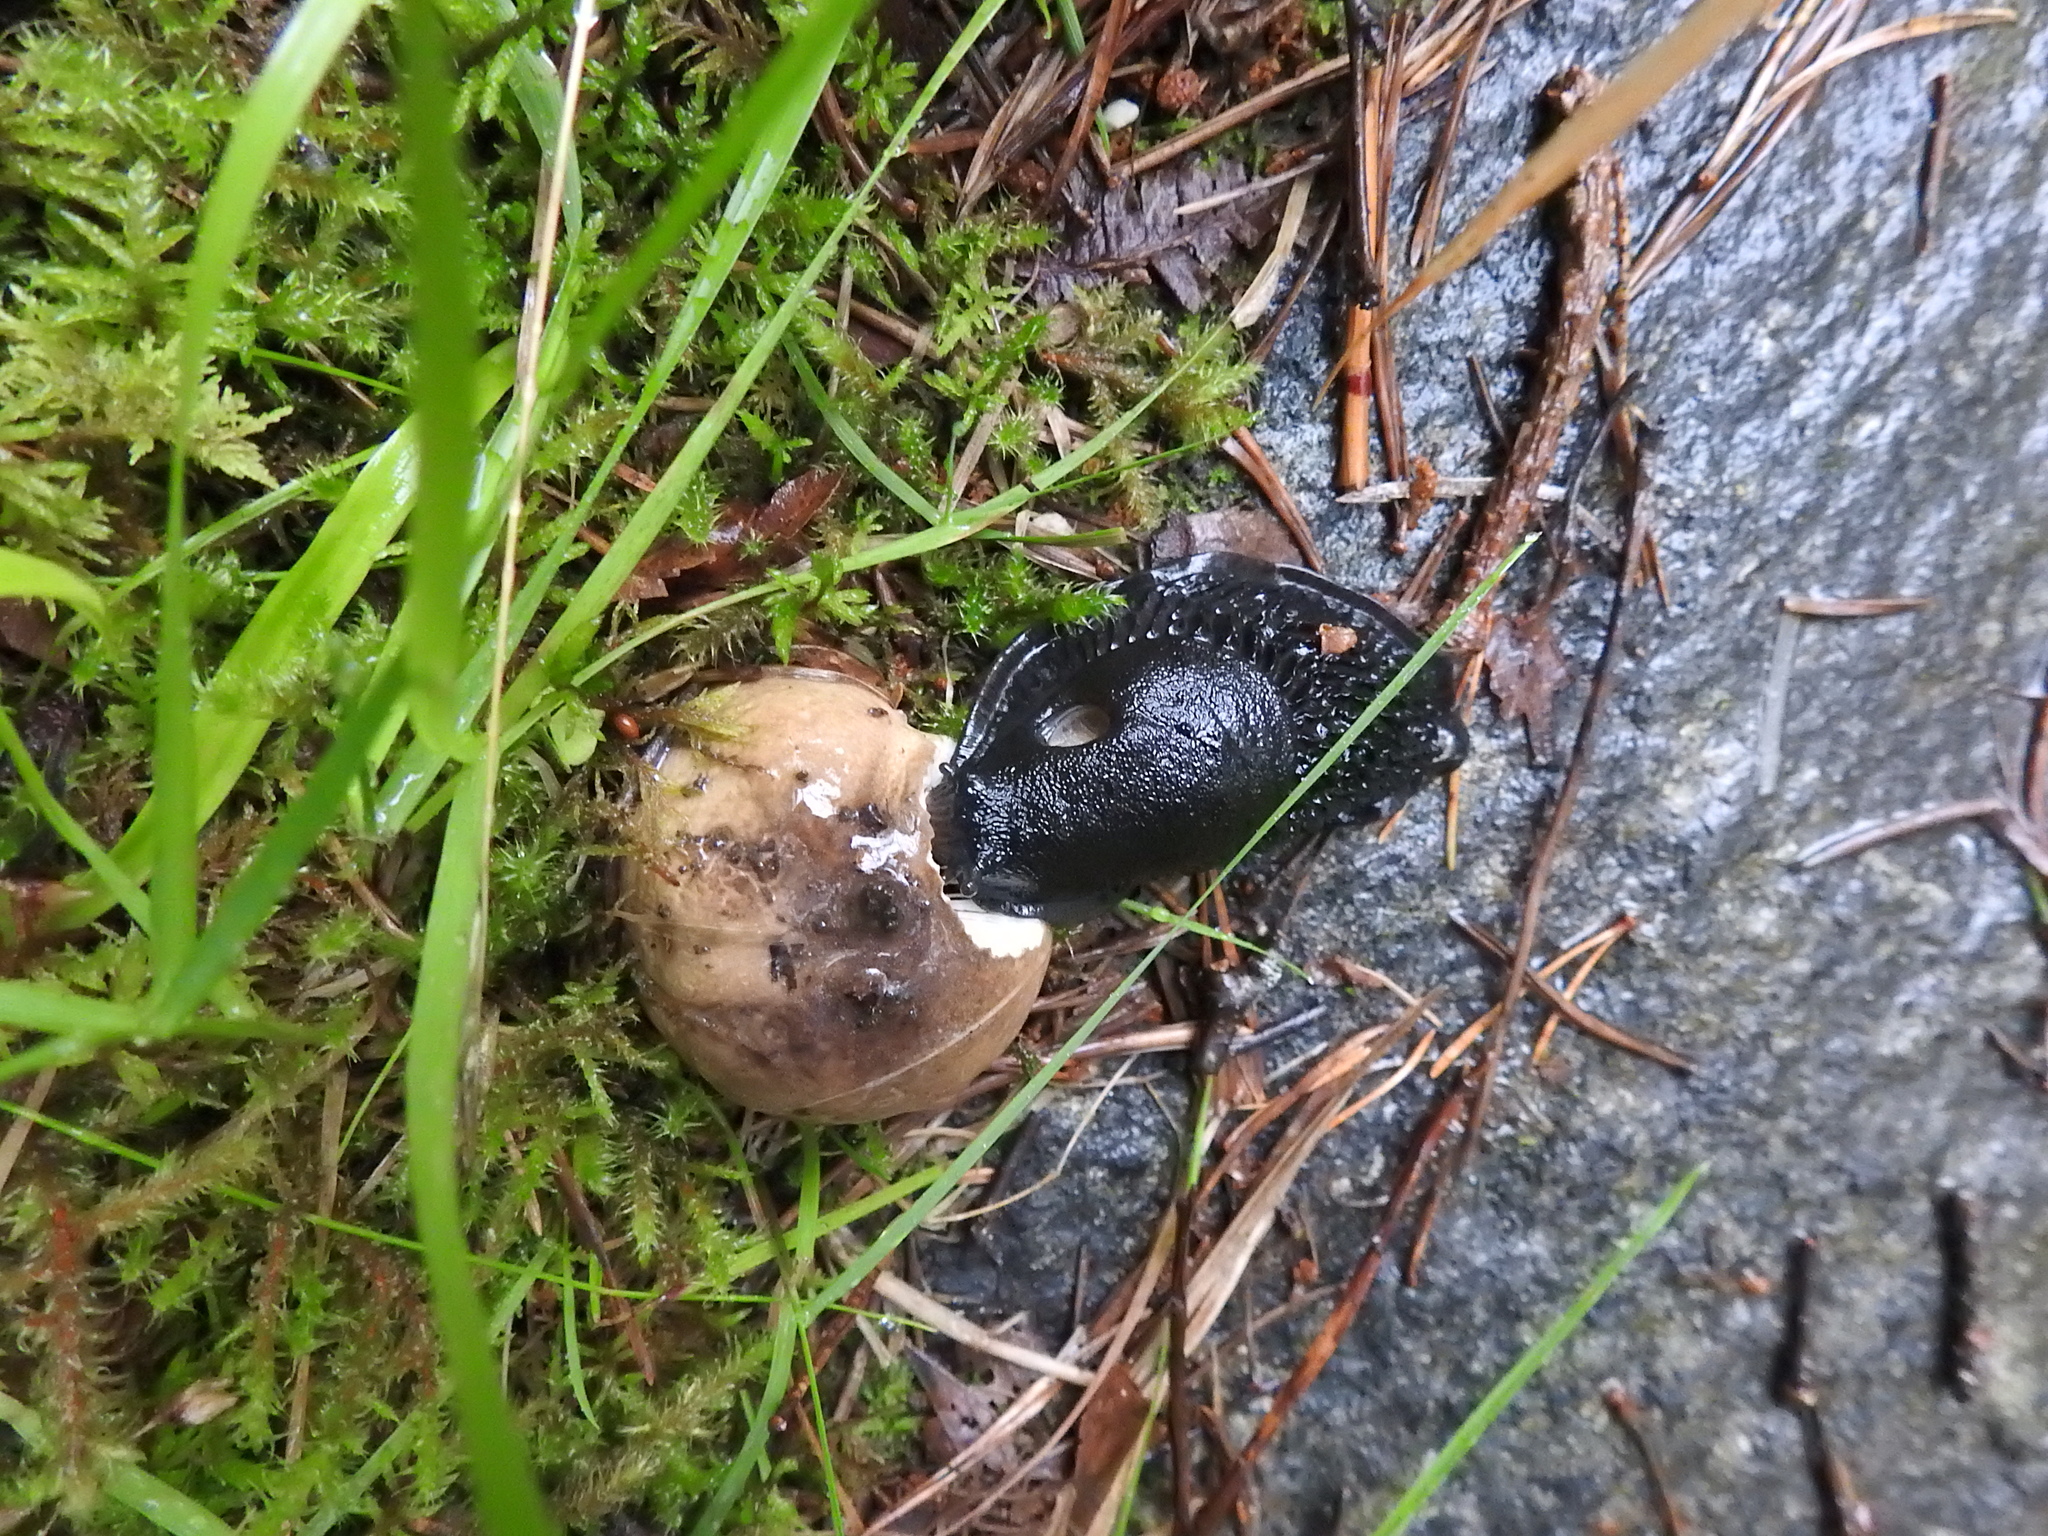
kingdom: Animalia
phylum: Mollusca
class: Gastropoda
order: Stylommatophora
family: Arionidae
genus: Arion
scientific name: Arion ater
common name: Black arion
